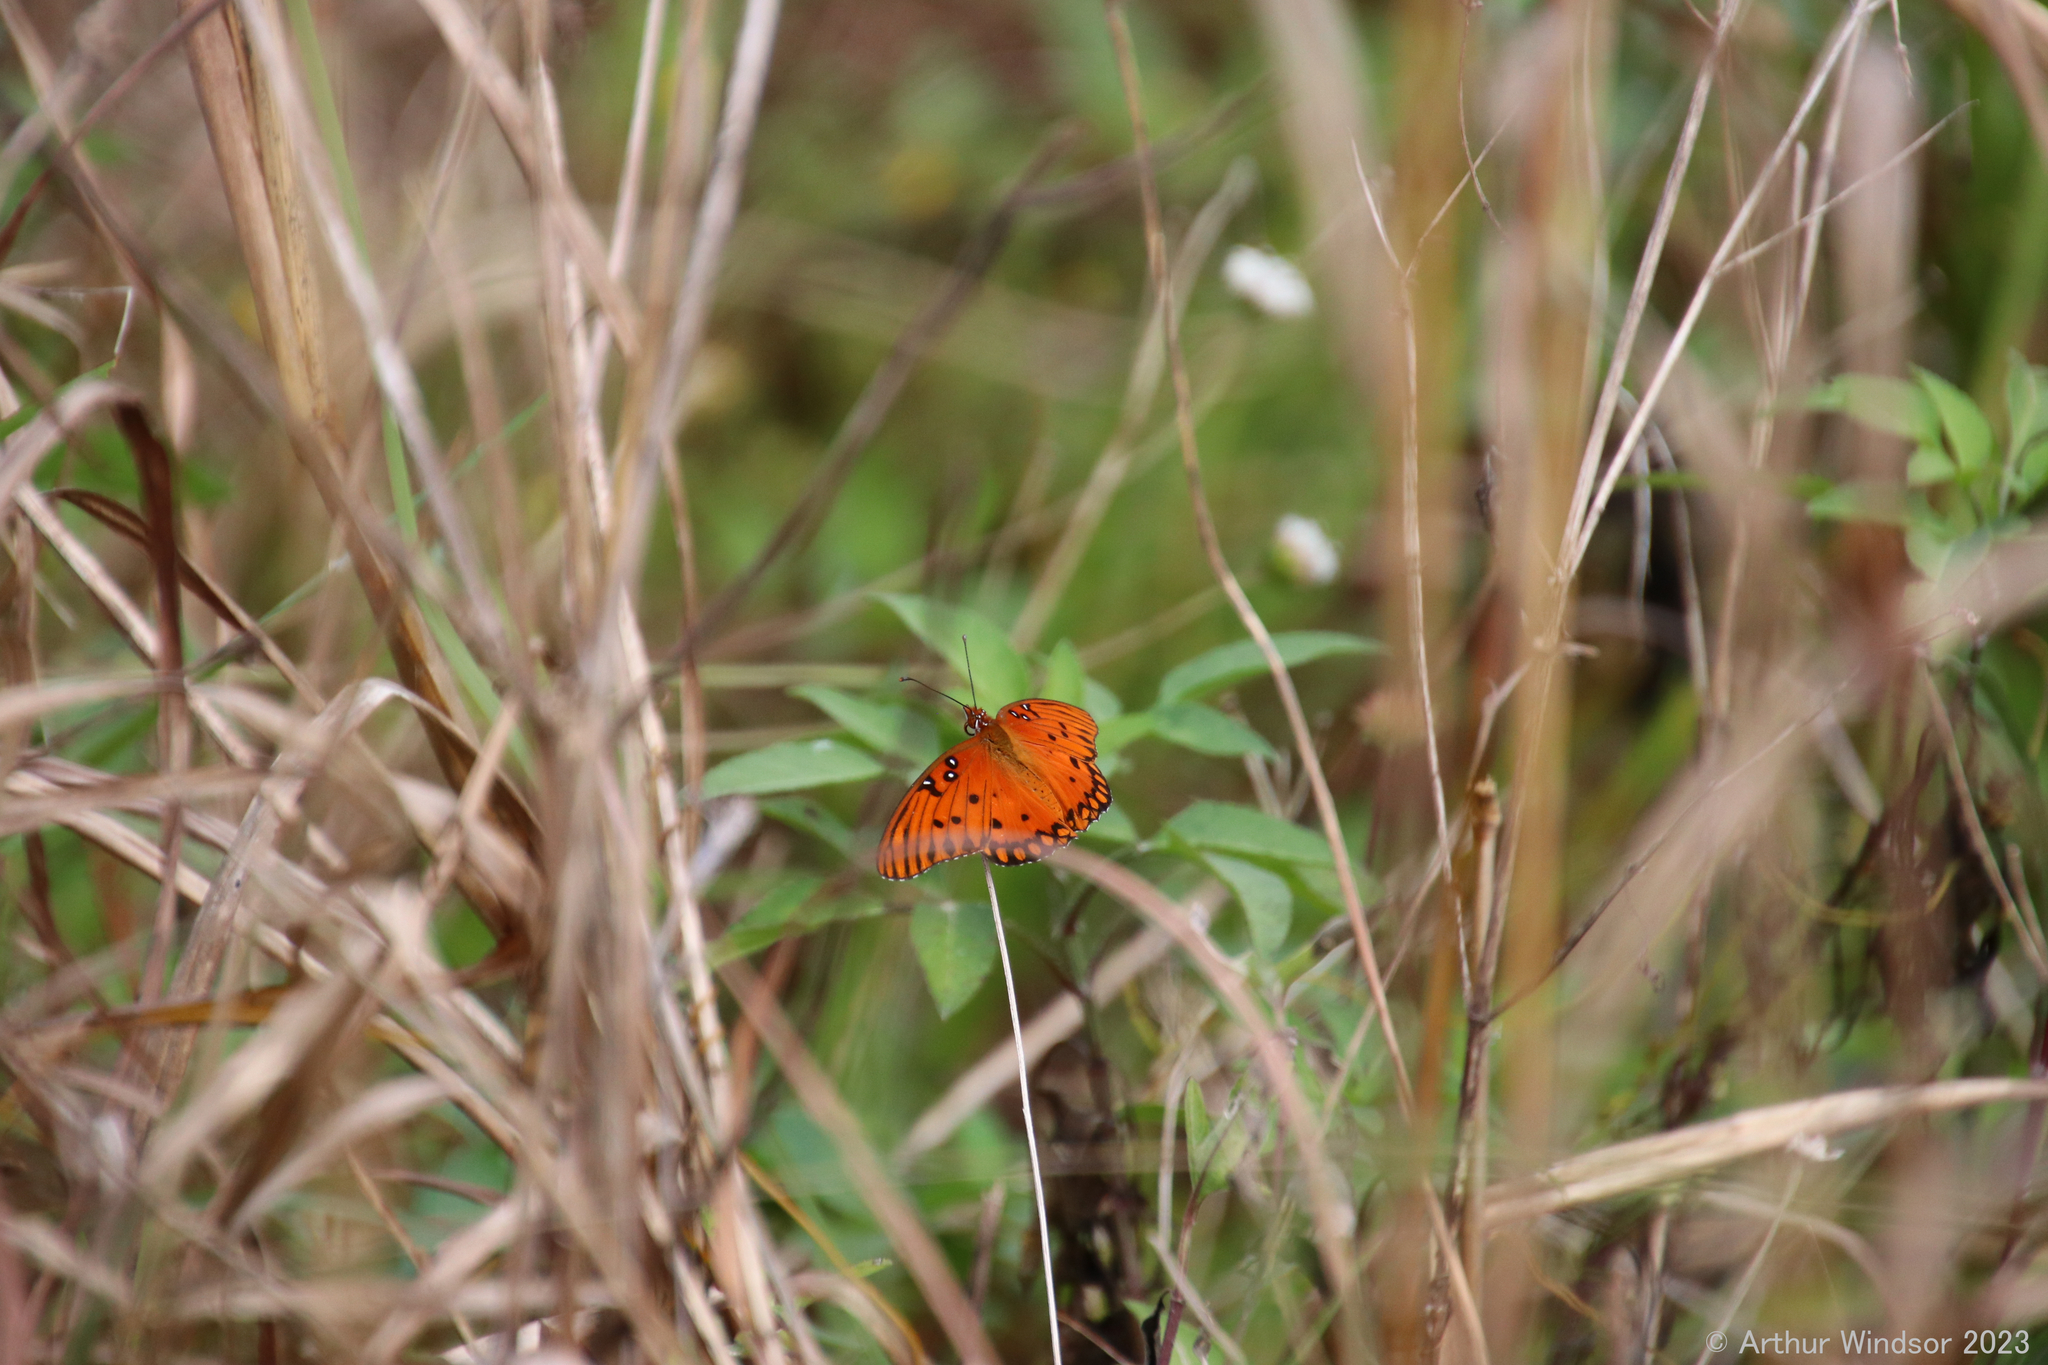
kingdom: Animalia
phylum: Arthropoda
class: Insecta
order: Lepidoptera
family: Nymphalidae
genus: Dione
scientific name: Dione vanillae
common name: Gulf fritillary
